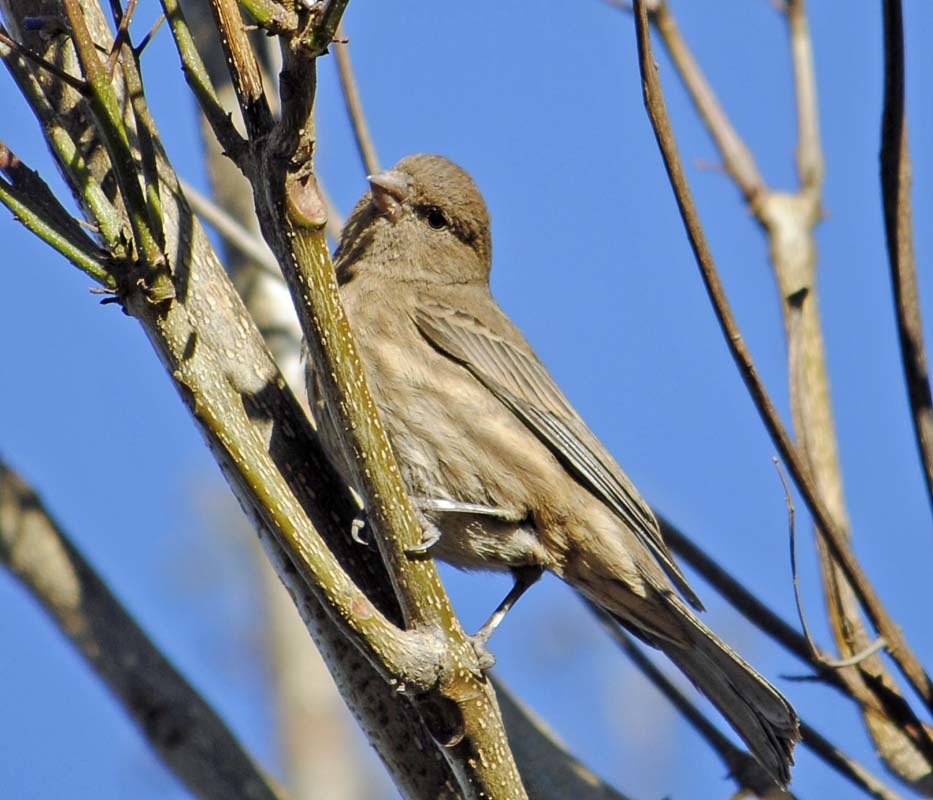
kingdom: Animalia
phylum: Chordata
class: Aves
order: Passeriformes
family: Fringillidae
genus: Haemorhous
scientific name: Haemorhous mexicanus
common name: House finch
